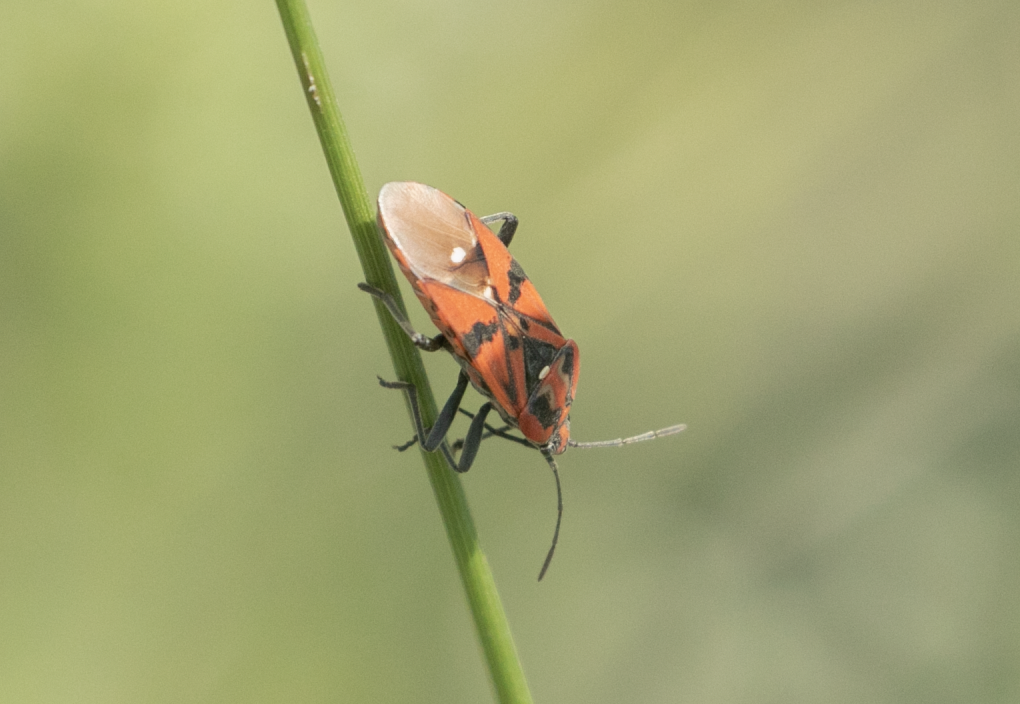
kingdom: Animalia
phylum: Arthropoda
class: Insecta
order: Hemiptera
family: Lygaeidae
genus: Spilostethus
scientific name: Spilostethus pandurus
